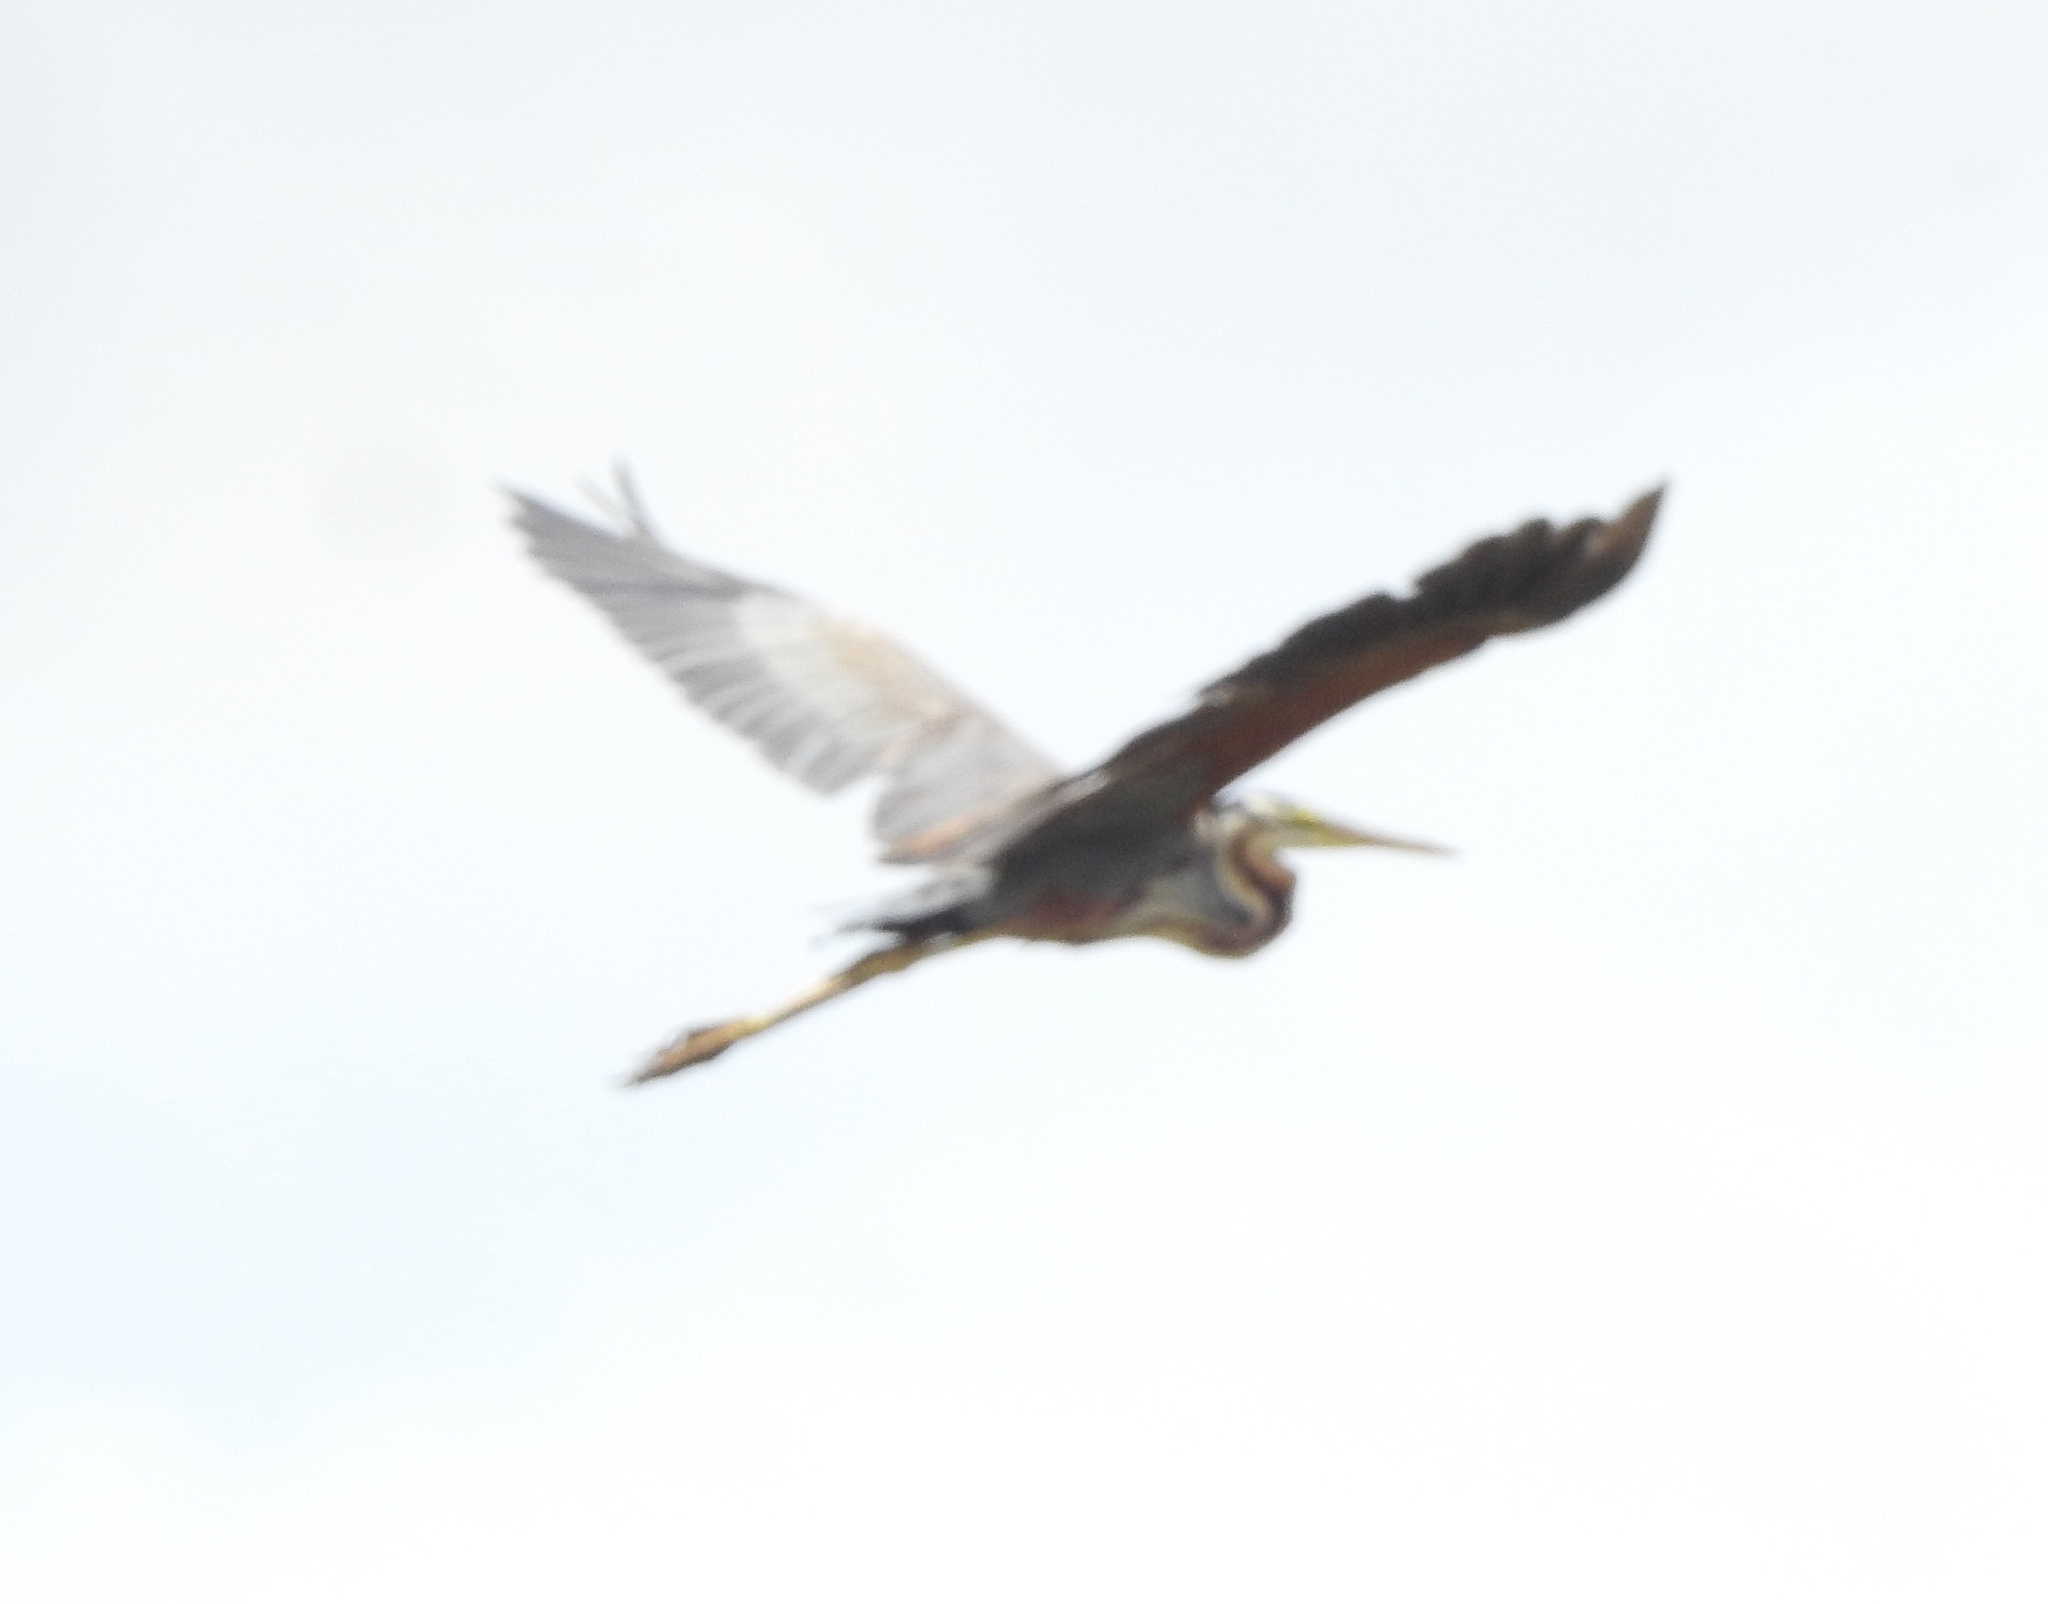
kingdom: Animalia
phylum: Chordata
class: Aves
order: Pelecaniformes
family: Ardeidae
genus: Ardea
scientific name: Ardea purpurea
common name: Purple heron
